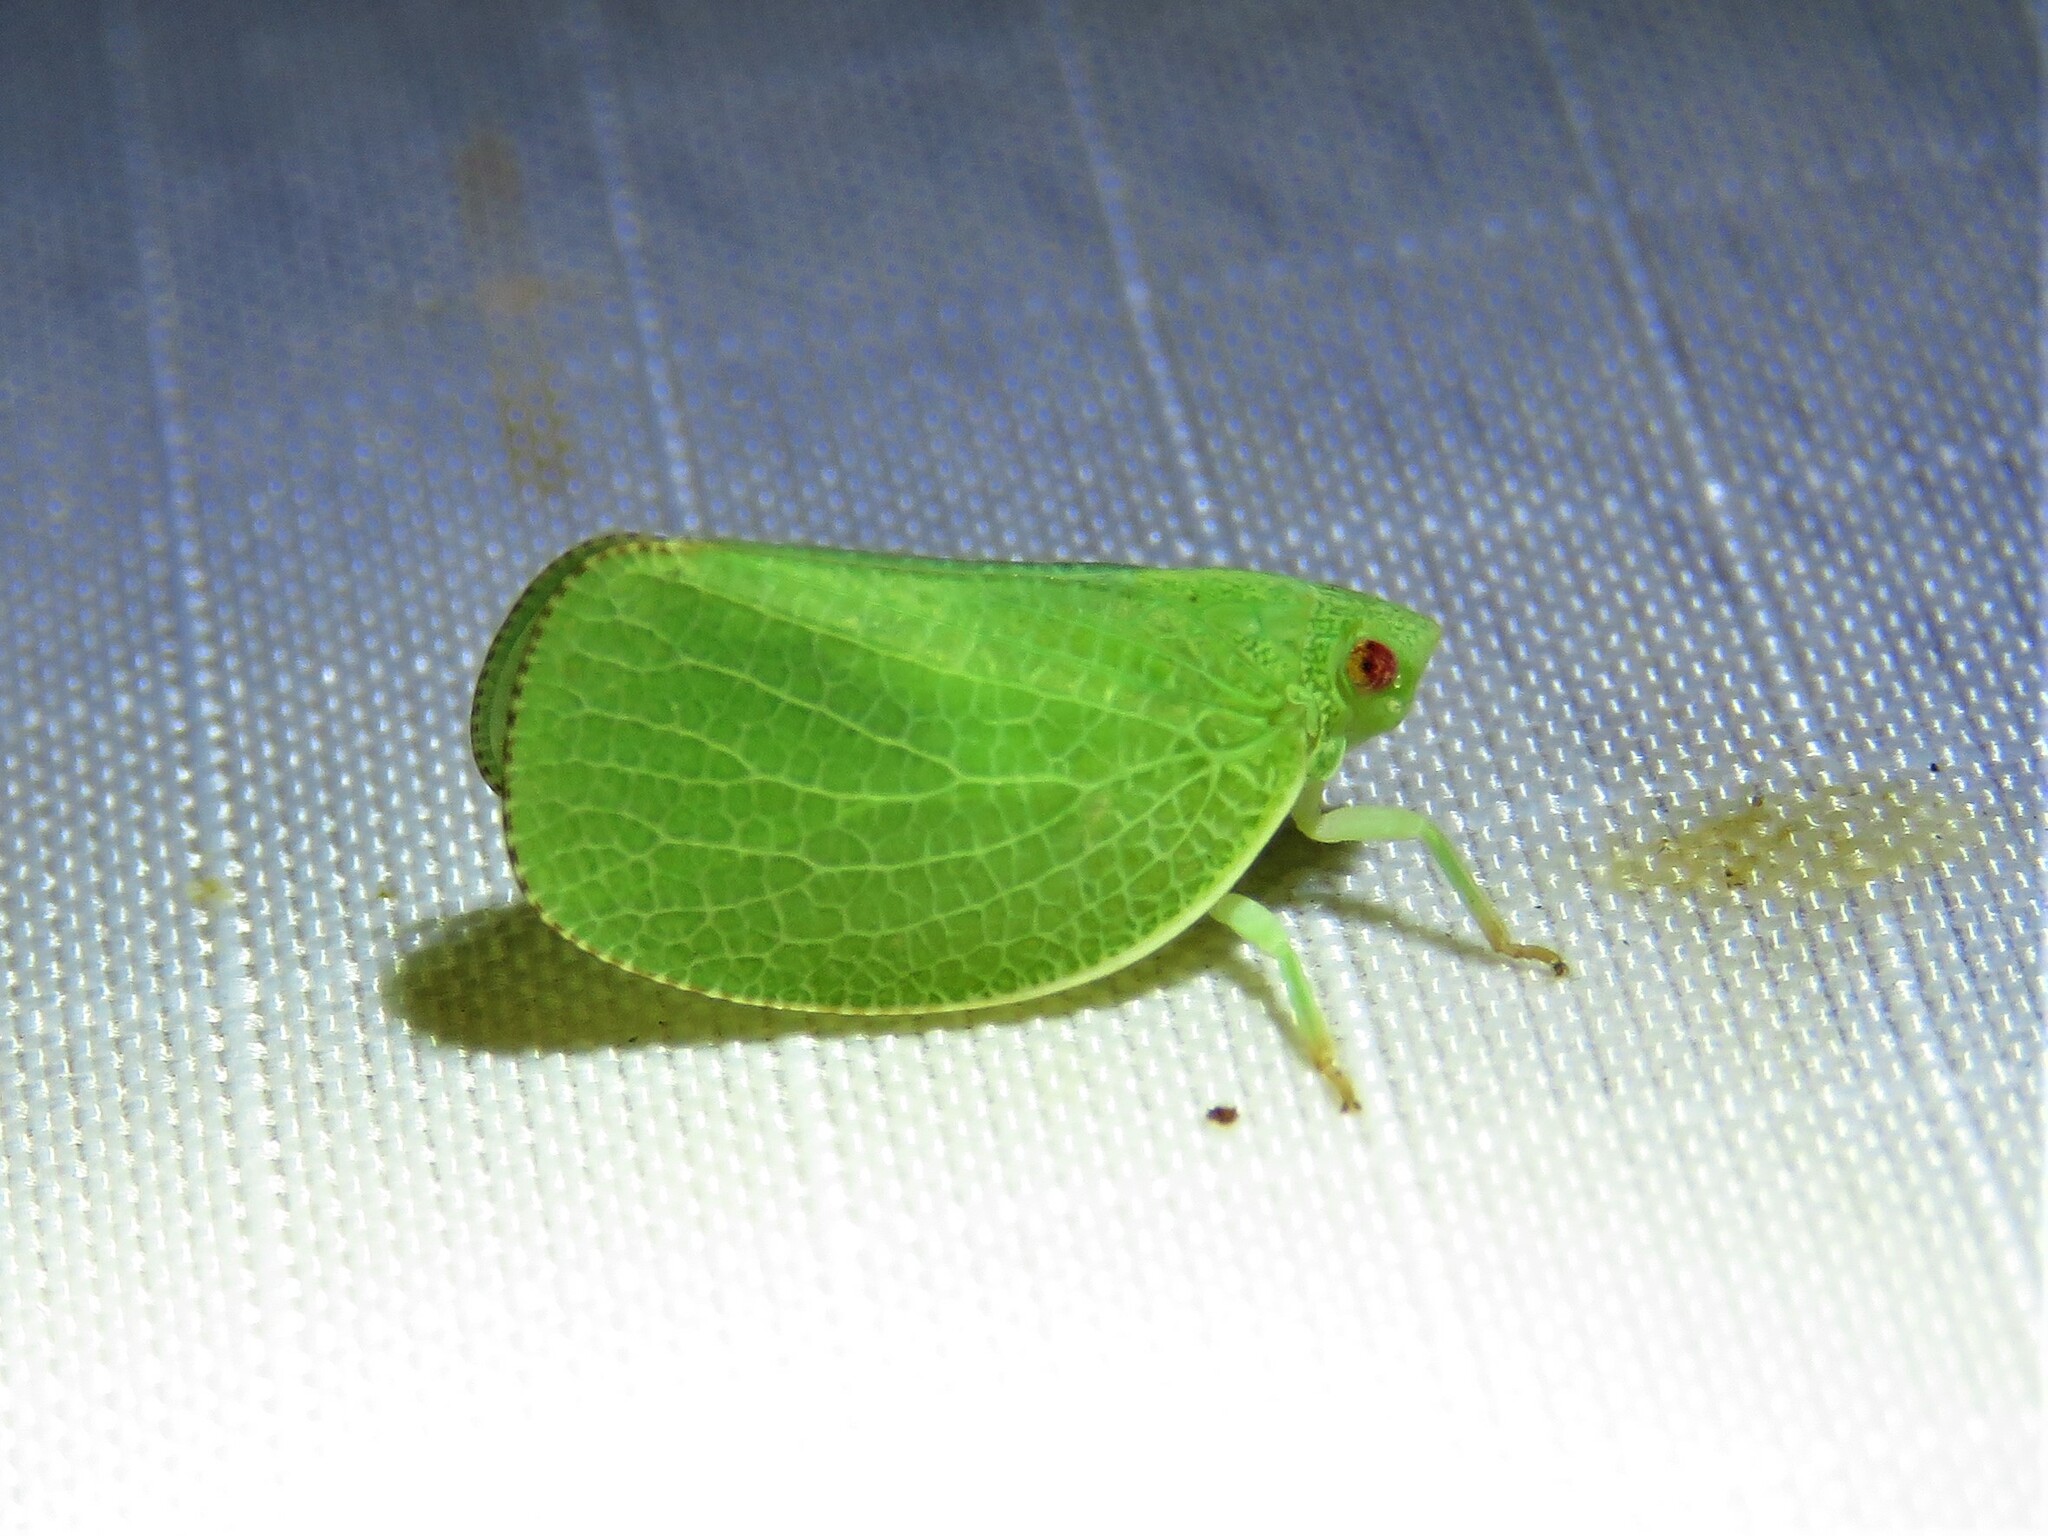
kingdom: Animalia
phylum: Arthropoda
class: Insecta
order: Hemiptera
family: Acanaloniidae
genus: Acanalonia
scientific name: Acanalonia conica
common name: Green cone-headed planthopper
